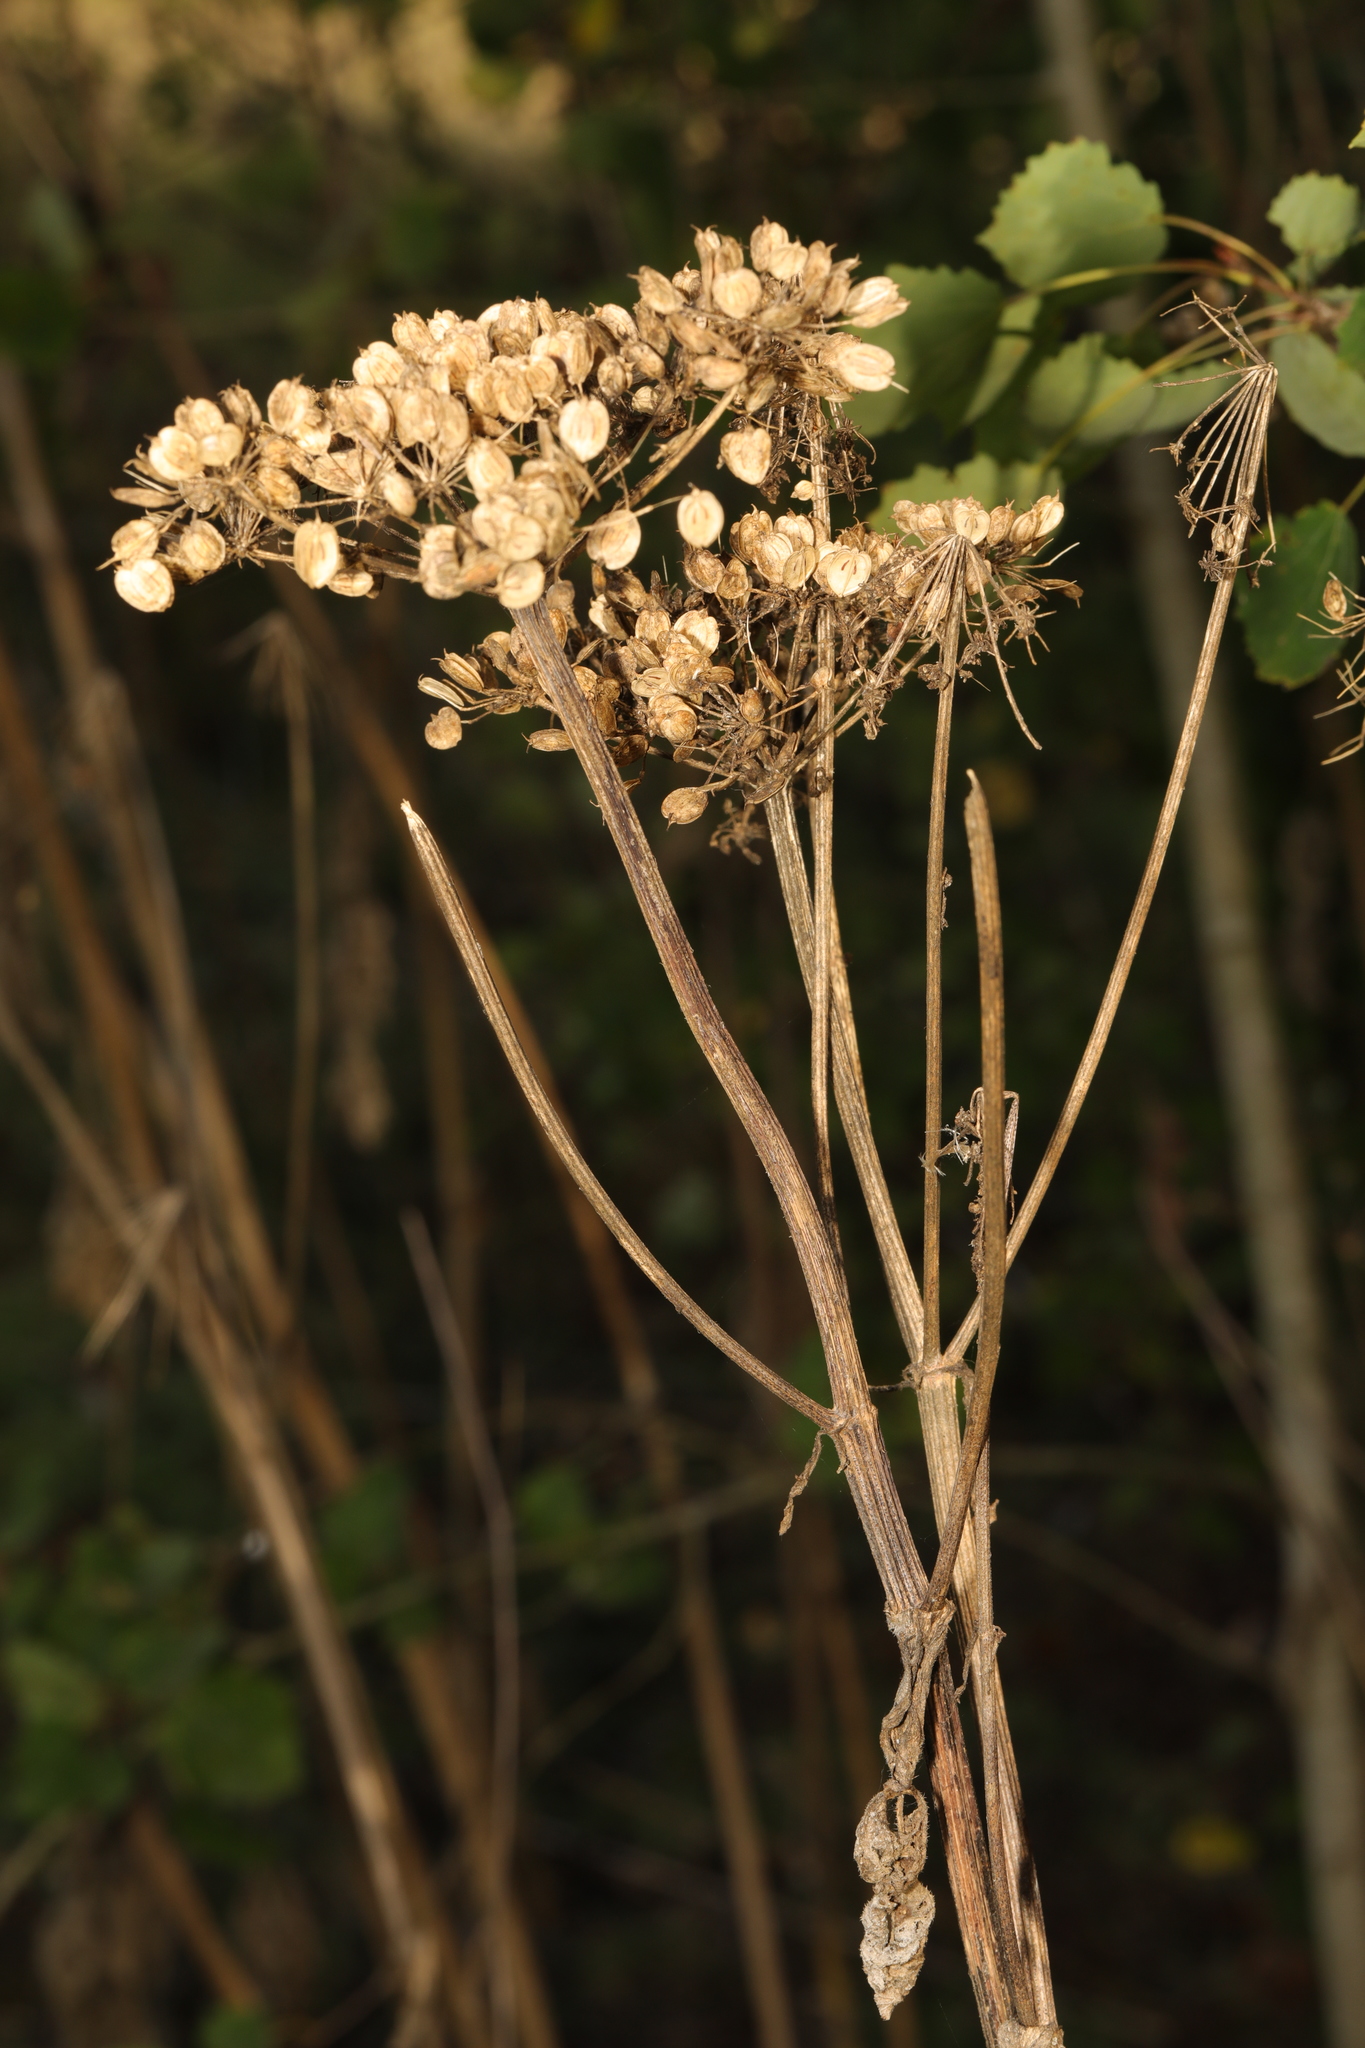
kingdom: Plantae
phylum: Tracheophyta
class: Magnoliopsida
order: Apiales
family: Apiaceae
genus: Heracleum
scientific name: Heracleum sphondylium
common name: Hogweed
